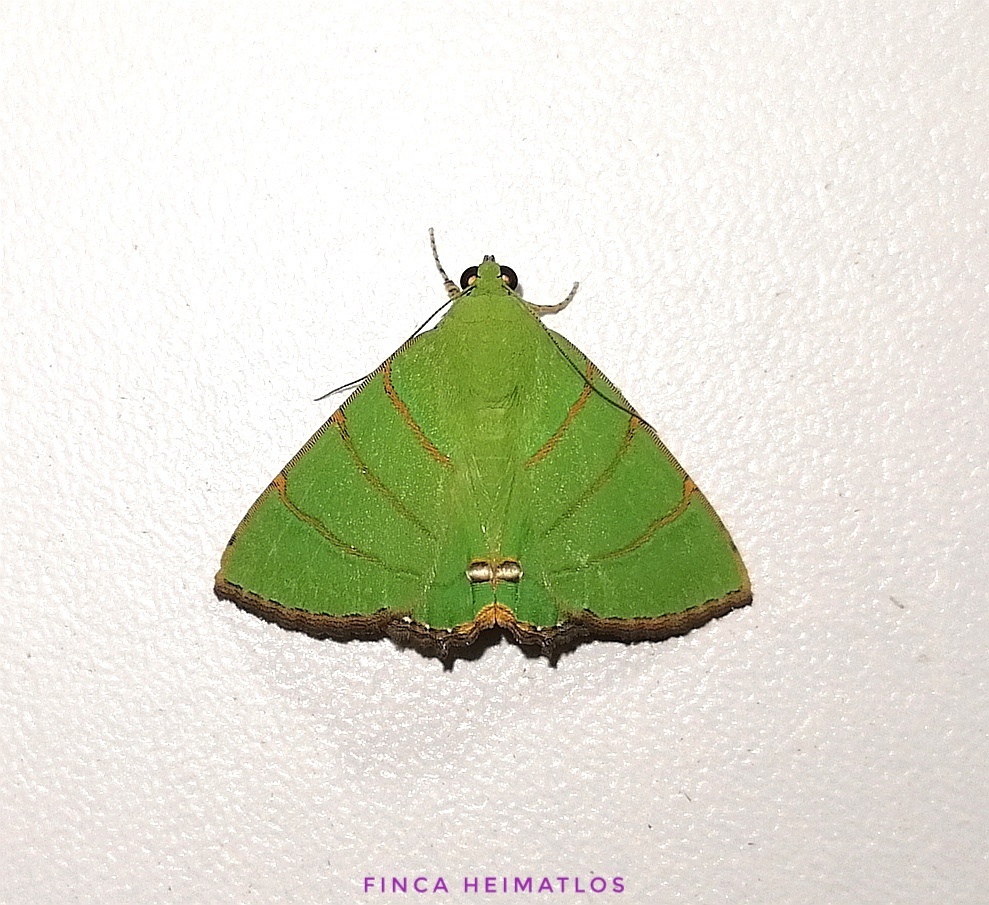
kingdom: Animalia
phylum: Arthropoda
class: Insecta
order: Lepidoptera
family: Erebidae
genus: Eulepidotis
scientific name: Eulepidotis viridissima
